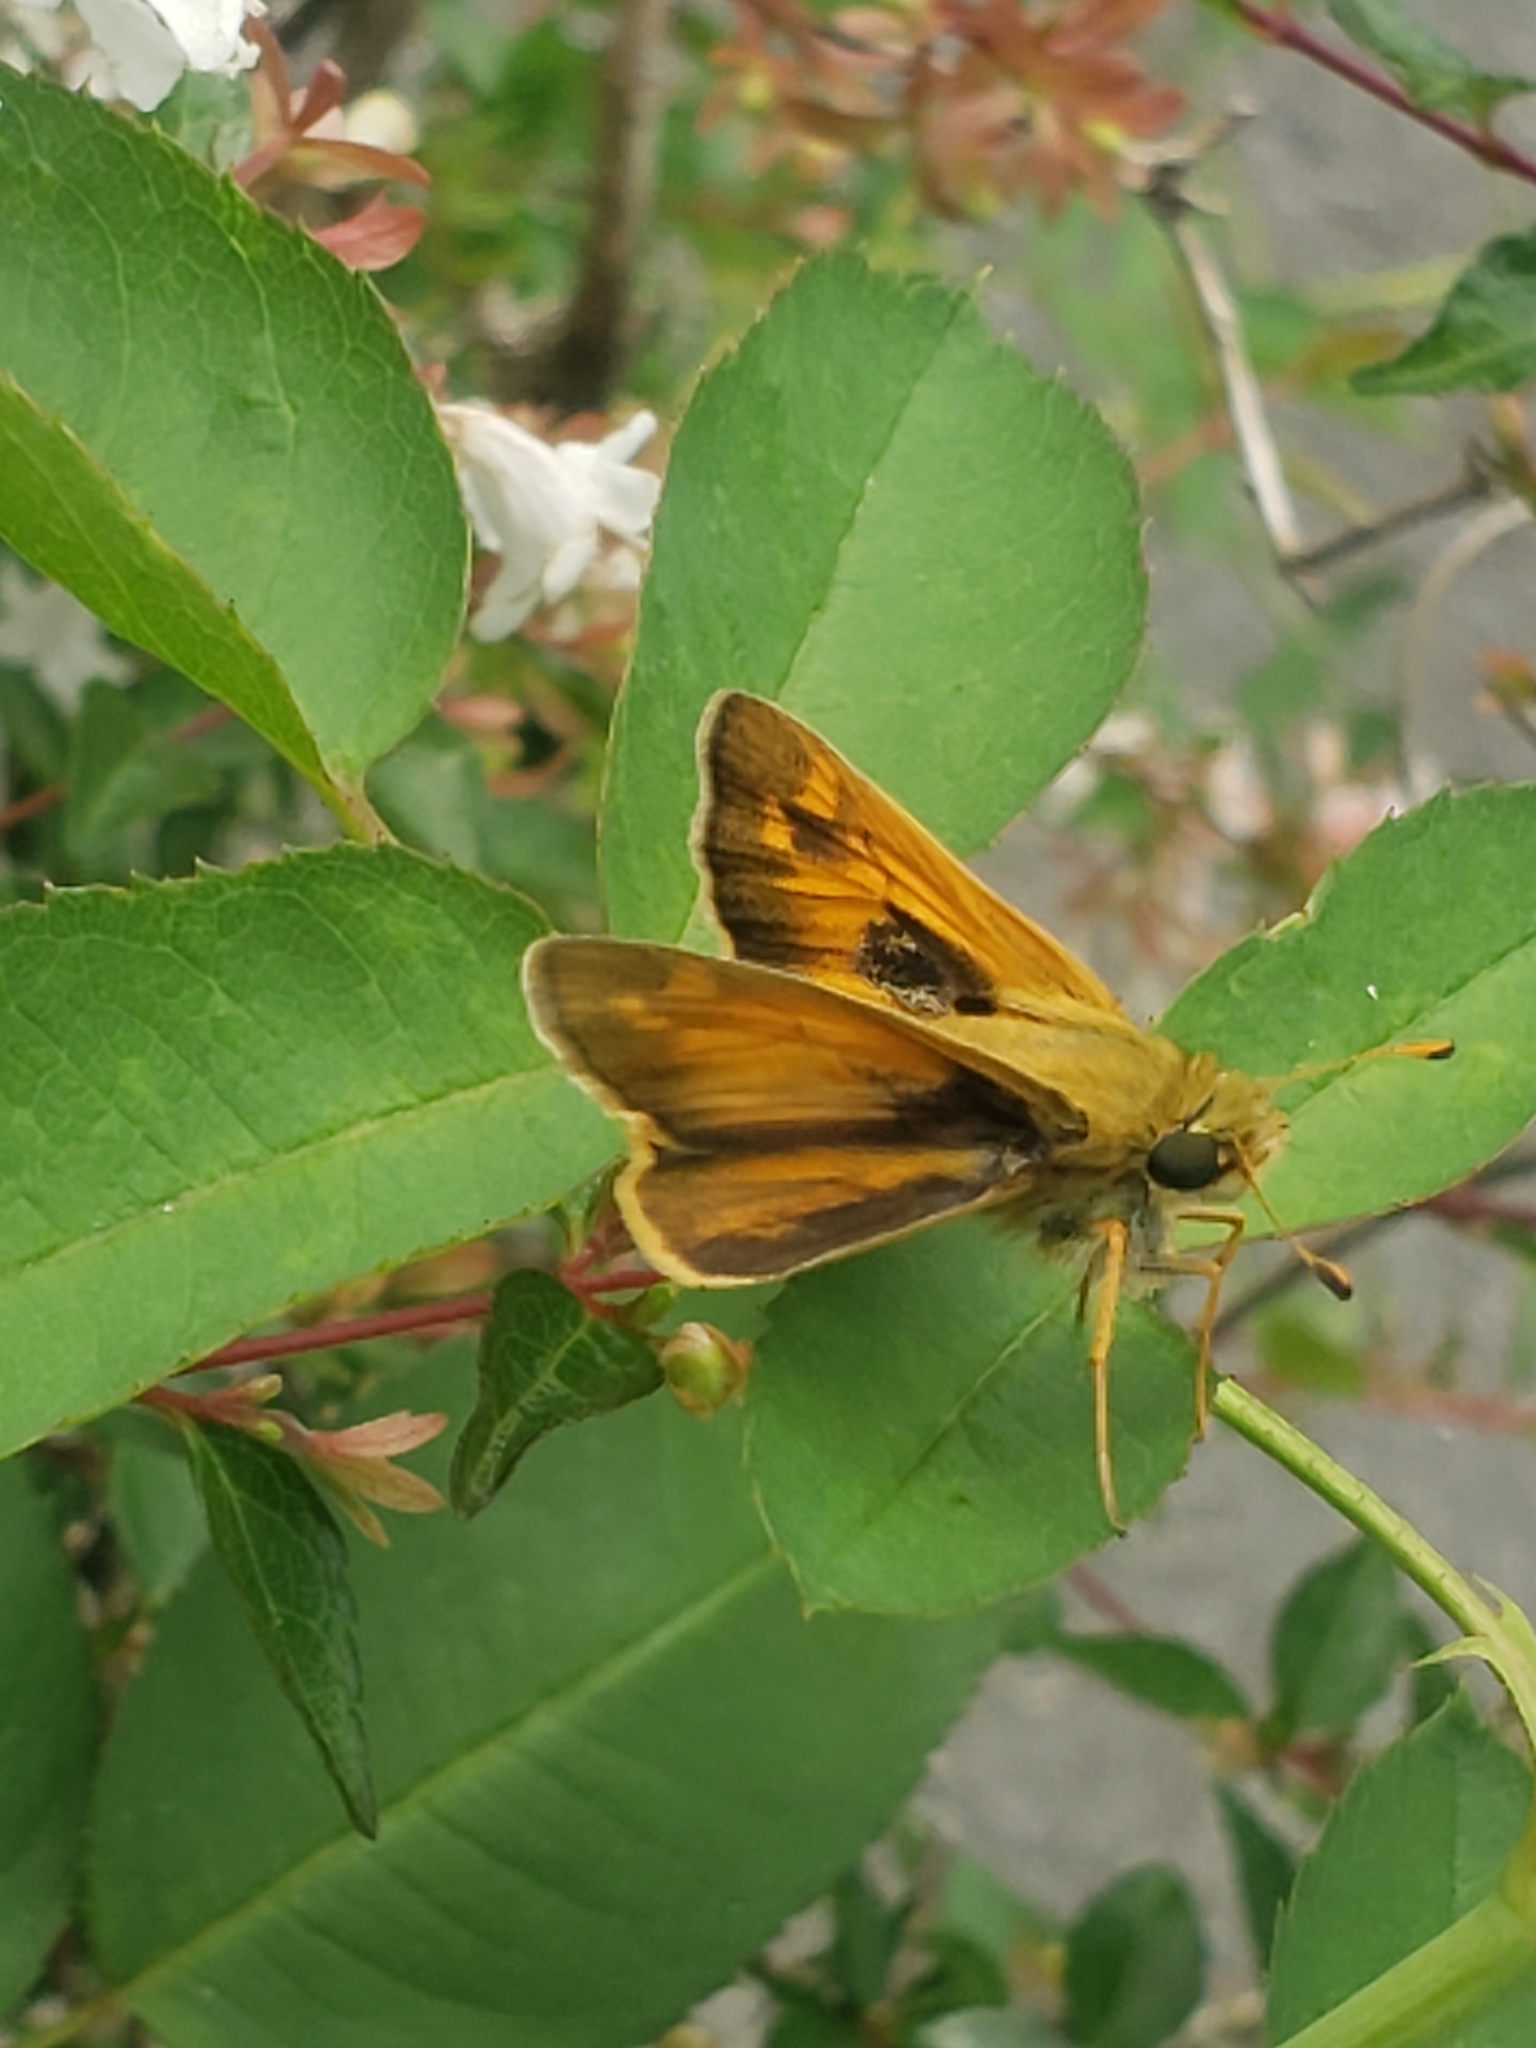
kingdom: Animalia
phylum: Arthropoda
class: Insecta
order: Lepidoptera
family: Hesperiidae
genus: Atalopedes
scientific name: Atalopedes
